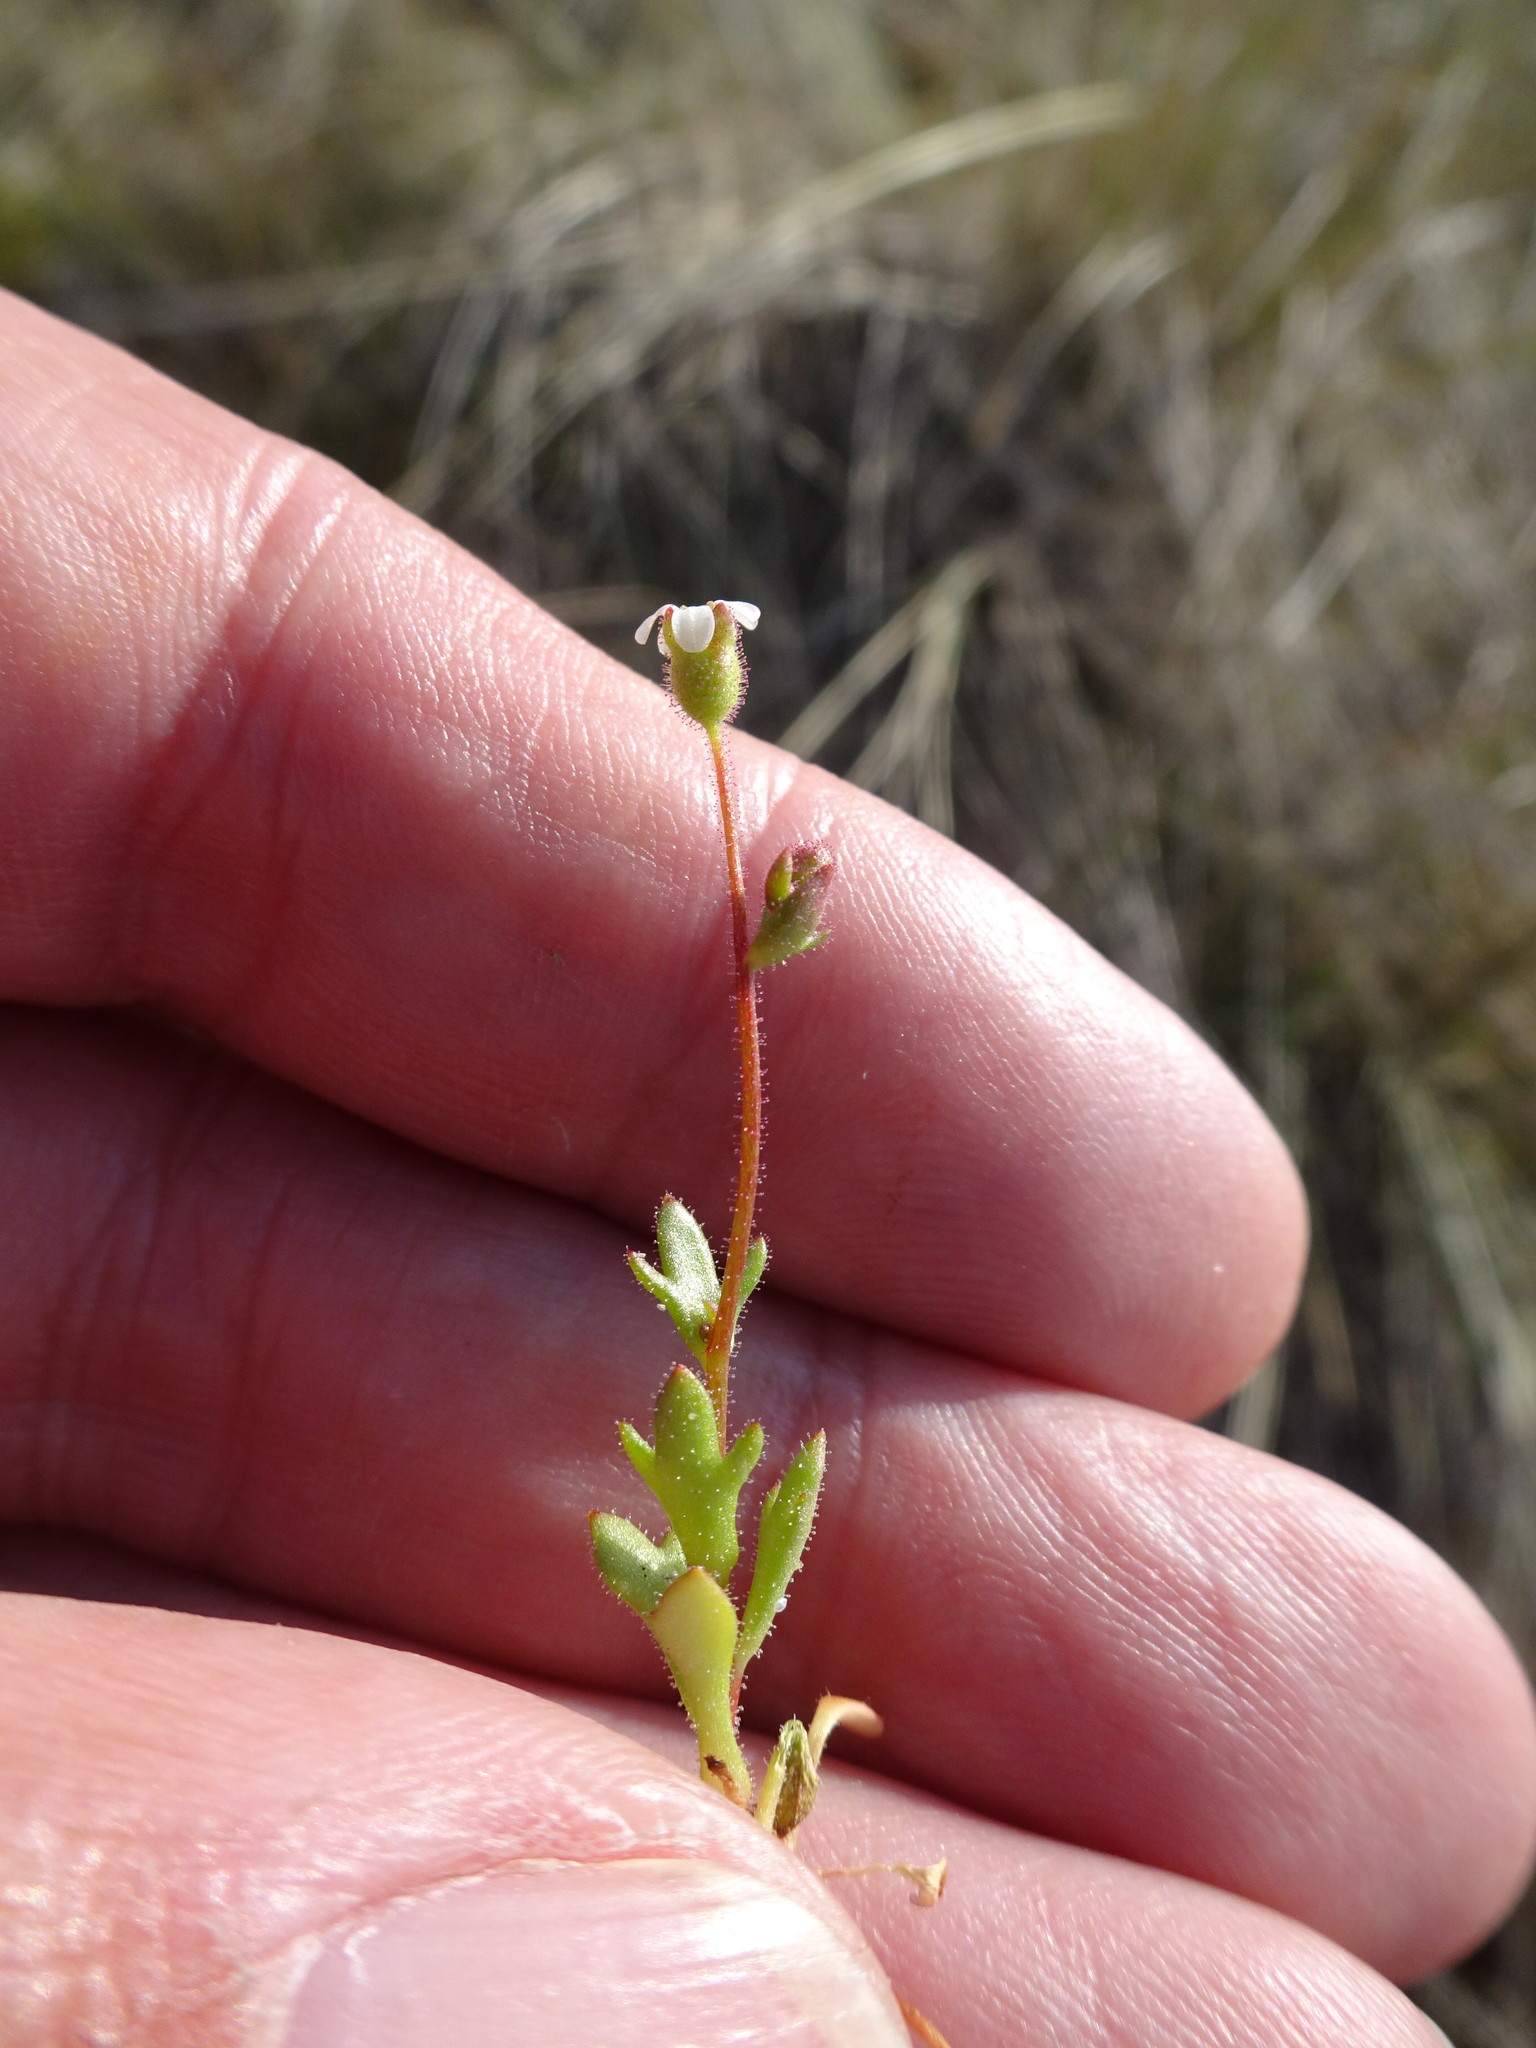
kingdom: Plantae
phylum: Tracheophyta
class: Magnoliopsida
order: Saxifragales
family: Saxifragaceae
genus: Saxifraga
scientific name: Saxifraga tridactylites
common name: Rue-leaved saxifrage
